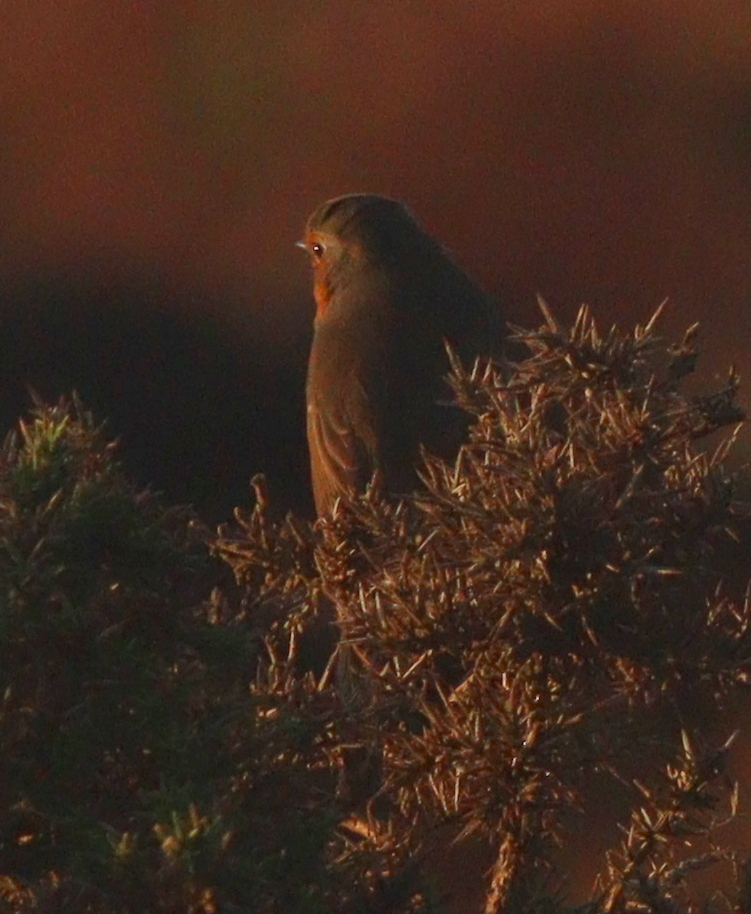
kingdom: Animalia
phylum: Chordata
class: Aves
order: Passeriformes
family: Muscicapidae
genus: Erithacus
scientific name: Erithacus rubecula
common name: European robin
